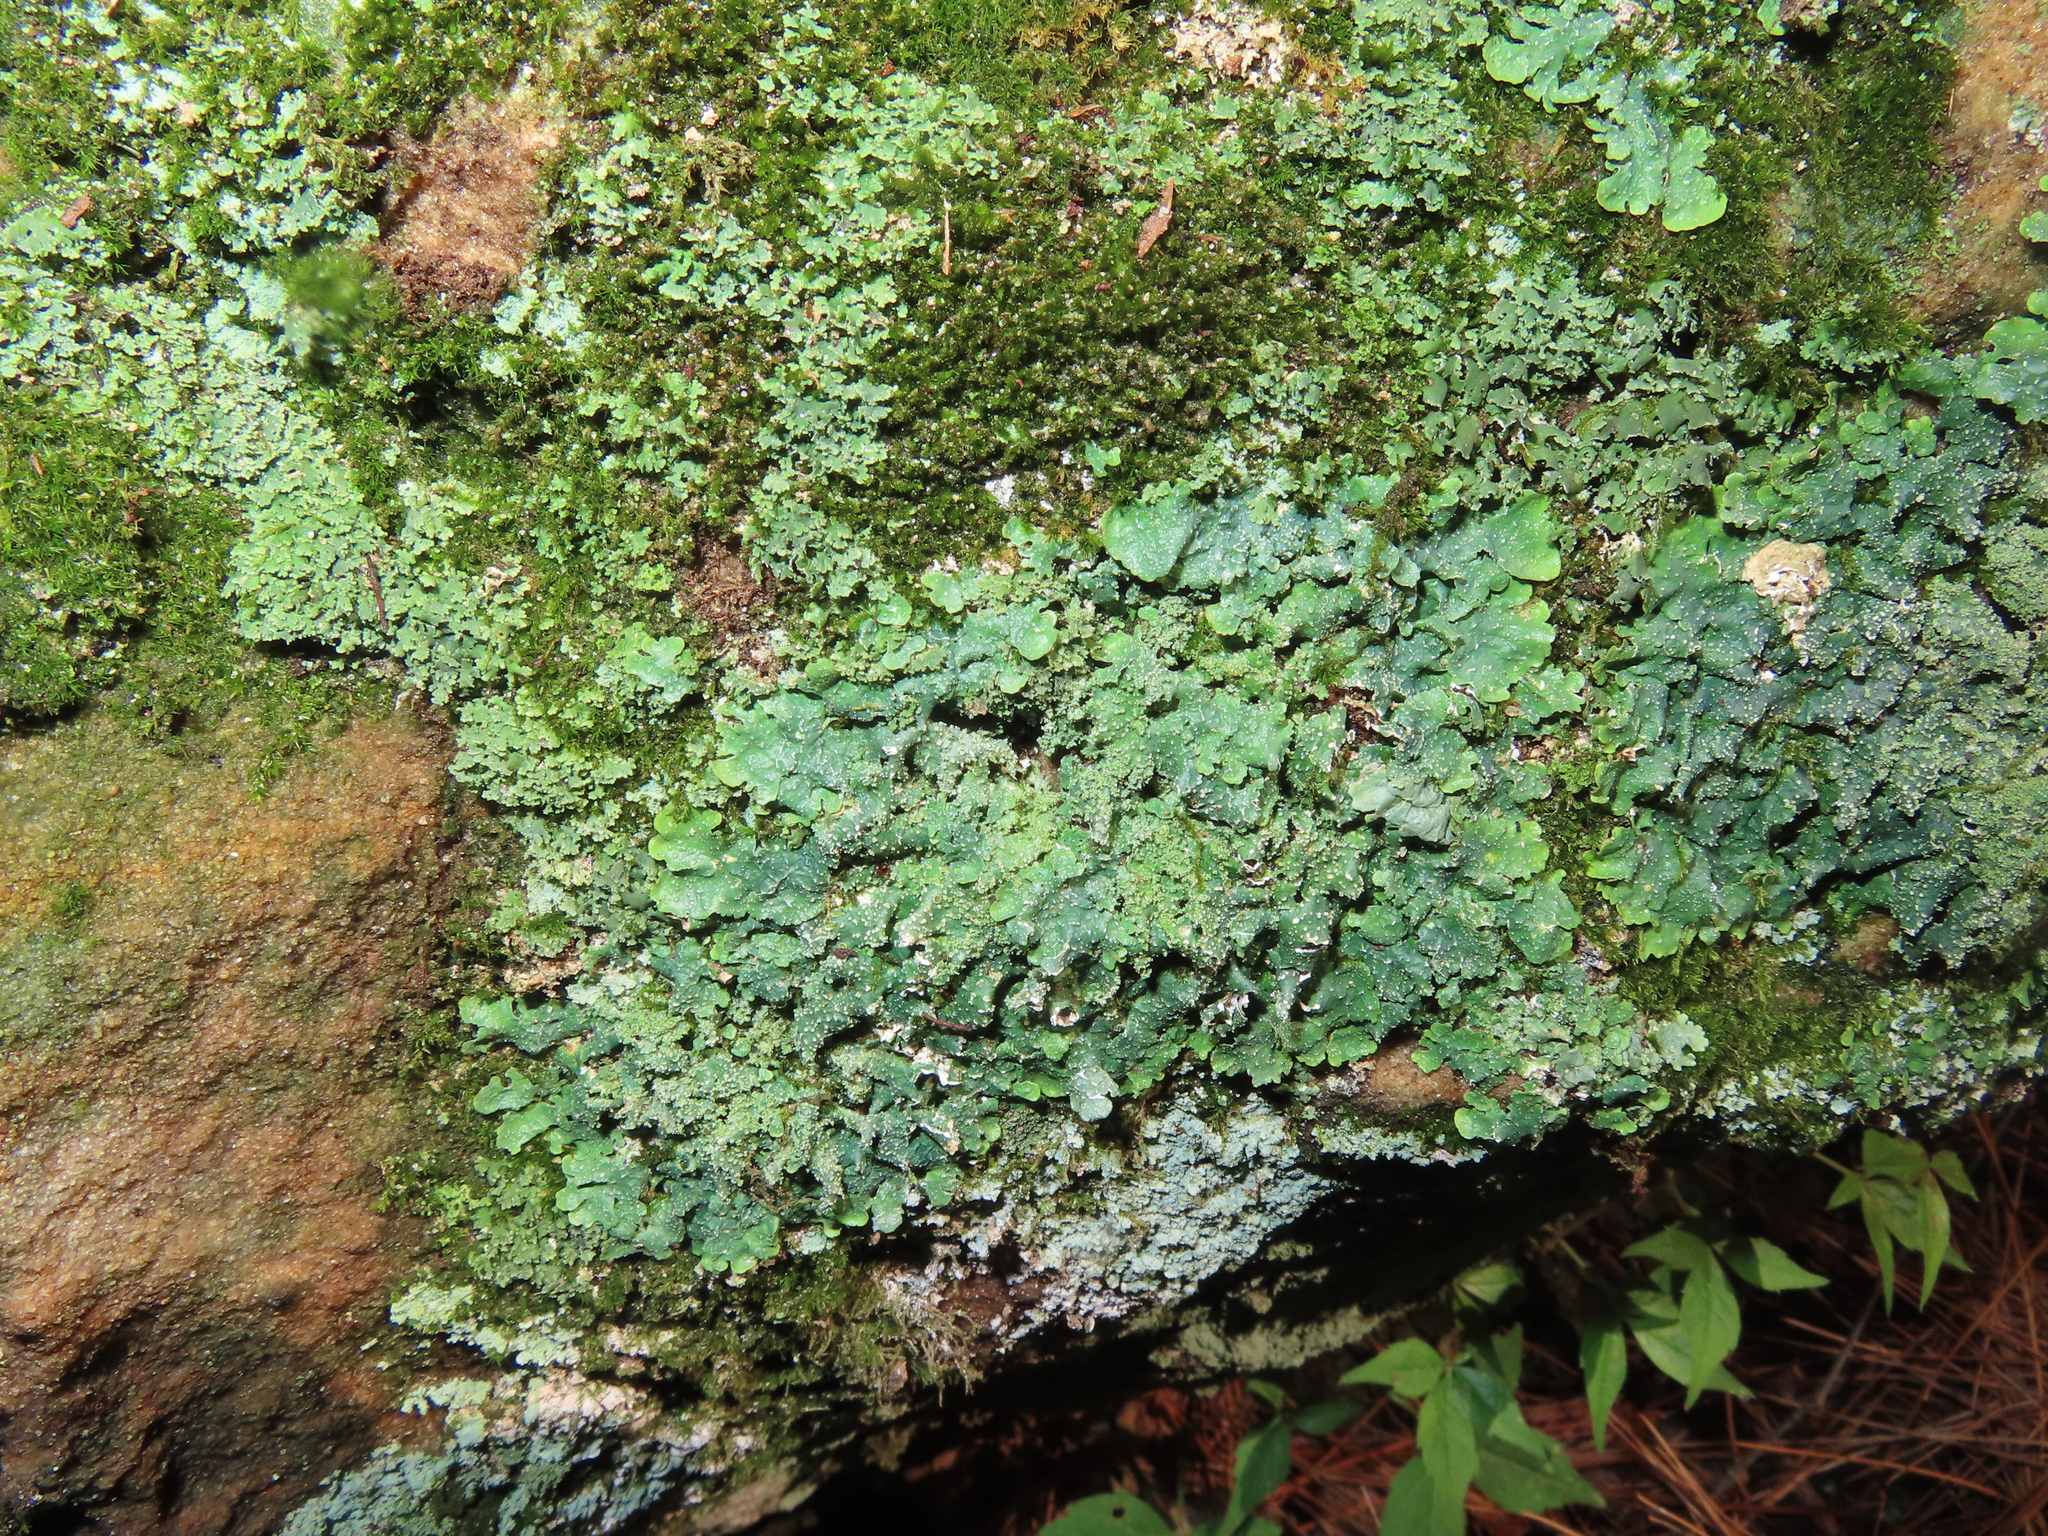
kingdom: Fungi
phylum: Ascomycota
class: Lecanoromycetes
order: Lecanorales
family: Parmeliaceae
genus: Punctelia
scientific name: Punctelia rudecta
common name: Rough speckled shield lichen
